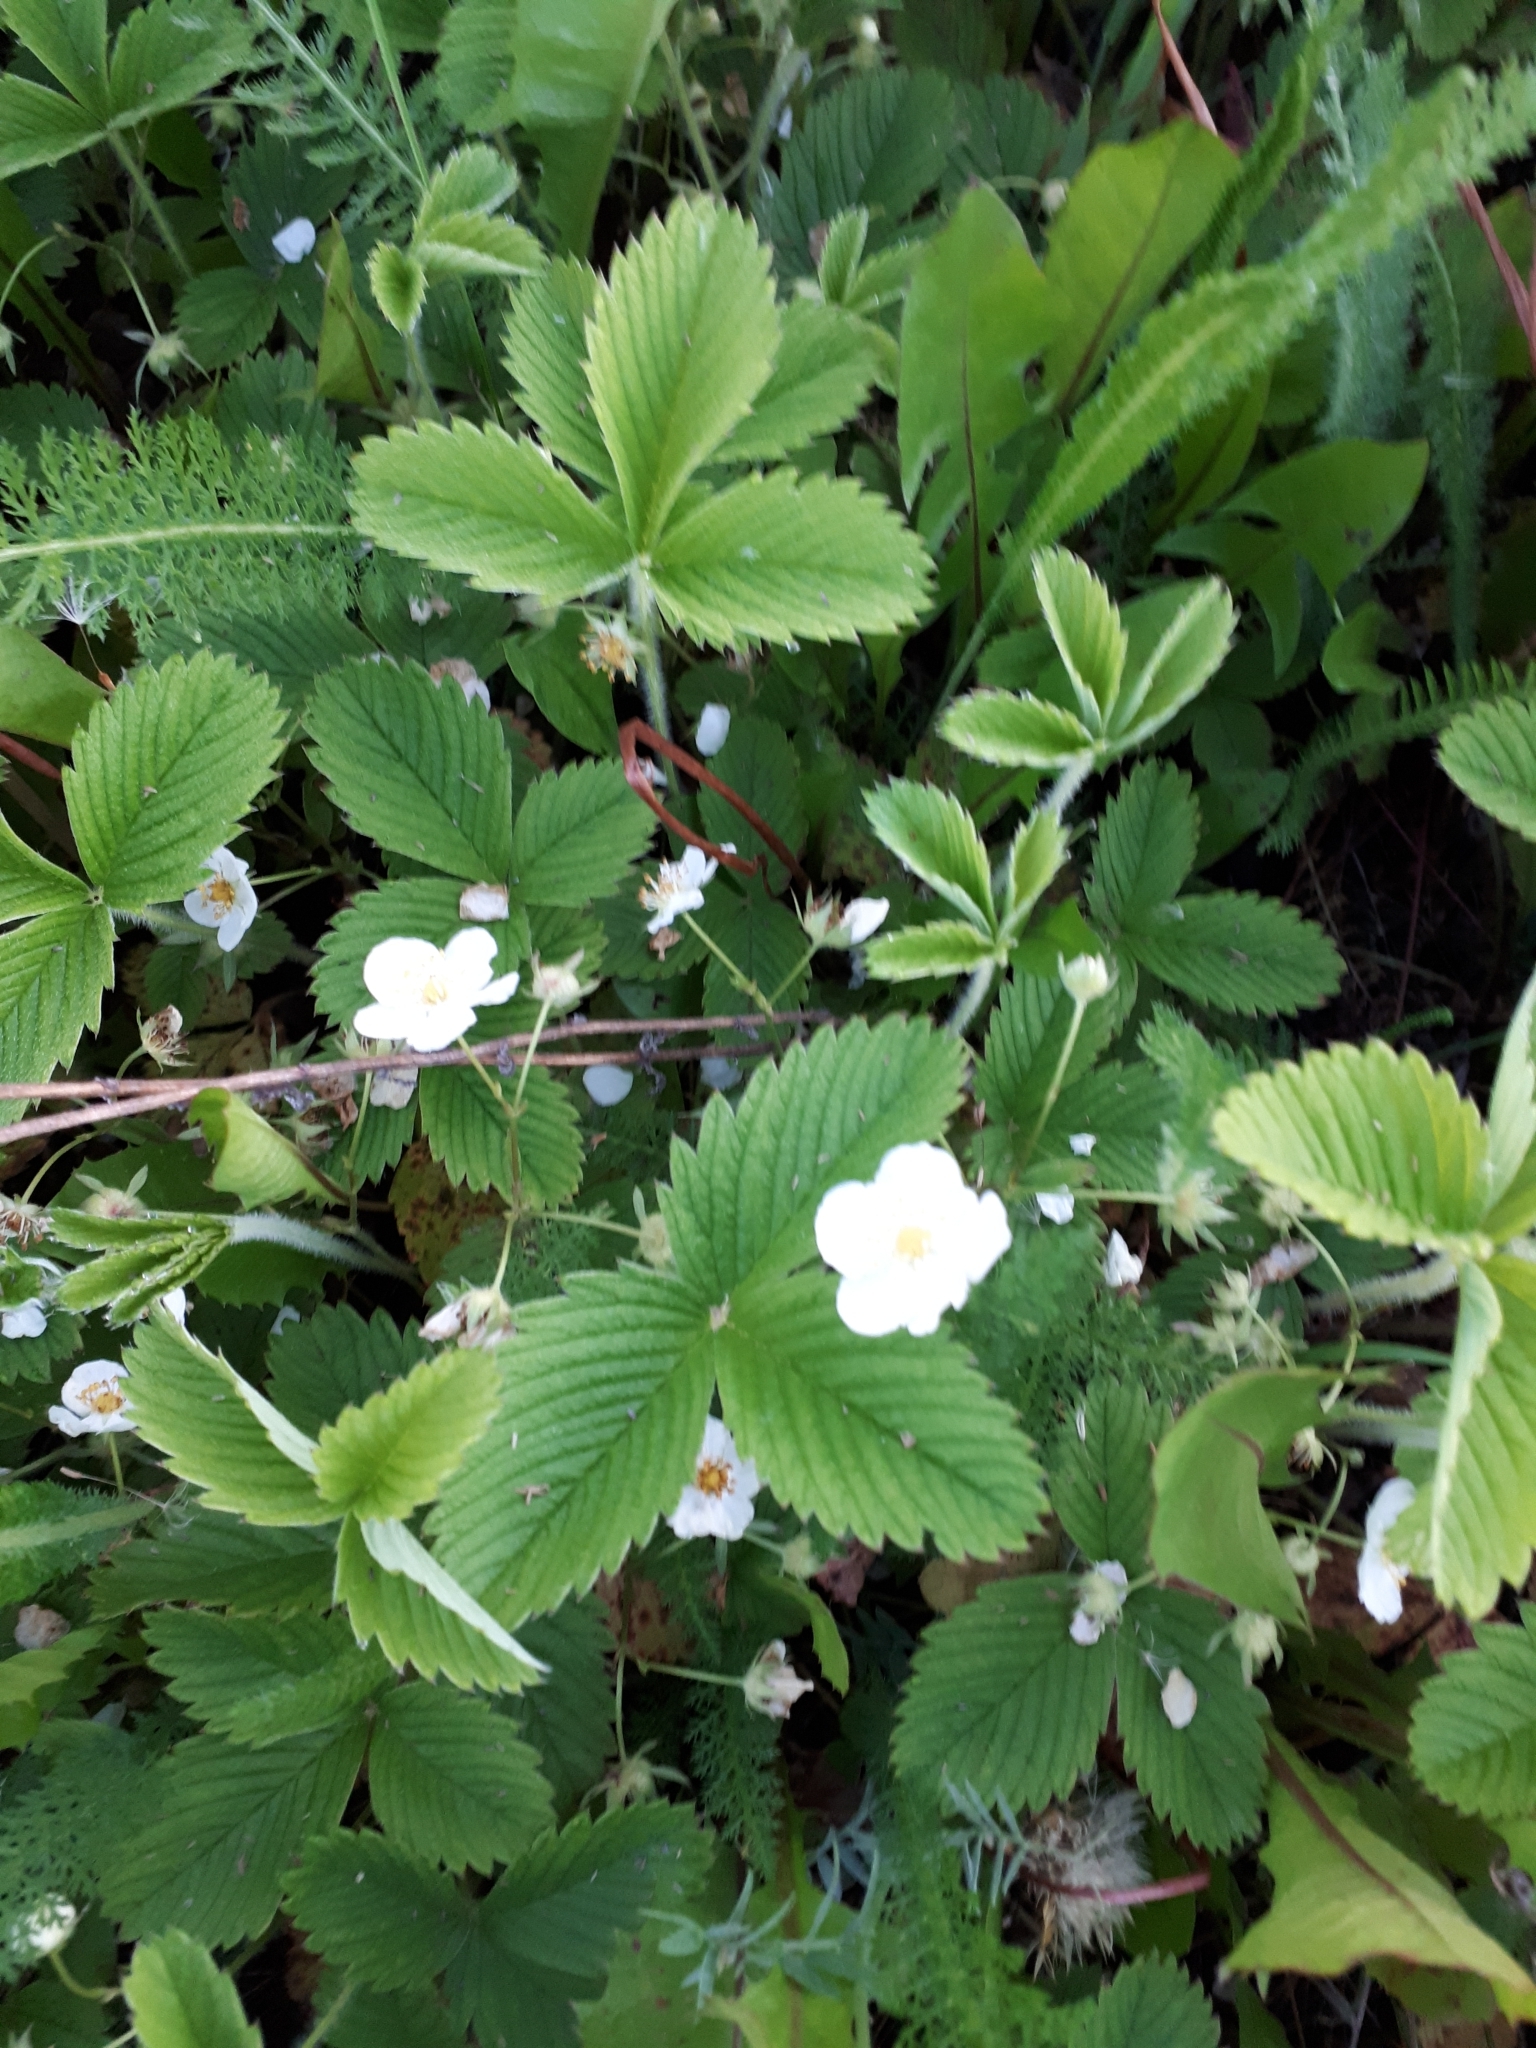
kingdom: Plantae
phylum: Tracheophyta
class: Magnoliopsida
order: Rosales
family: Rosaceae
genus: Fragaria
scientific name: Fragaria viridis
